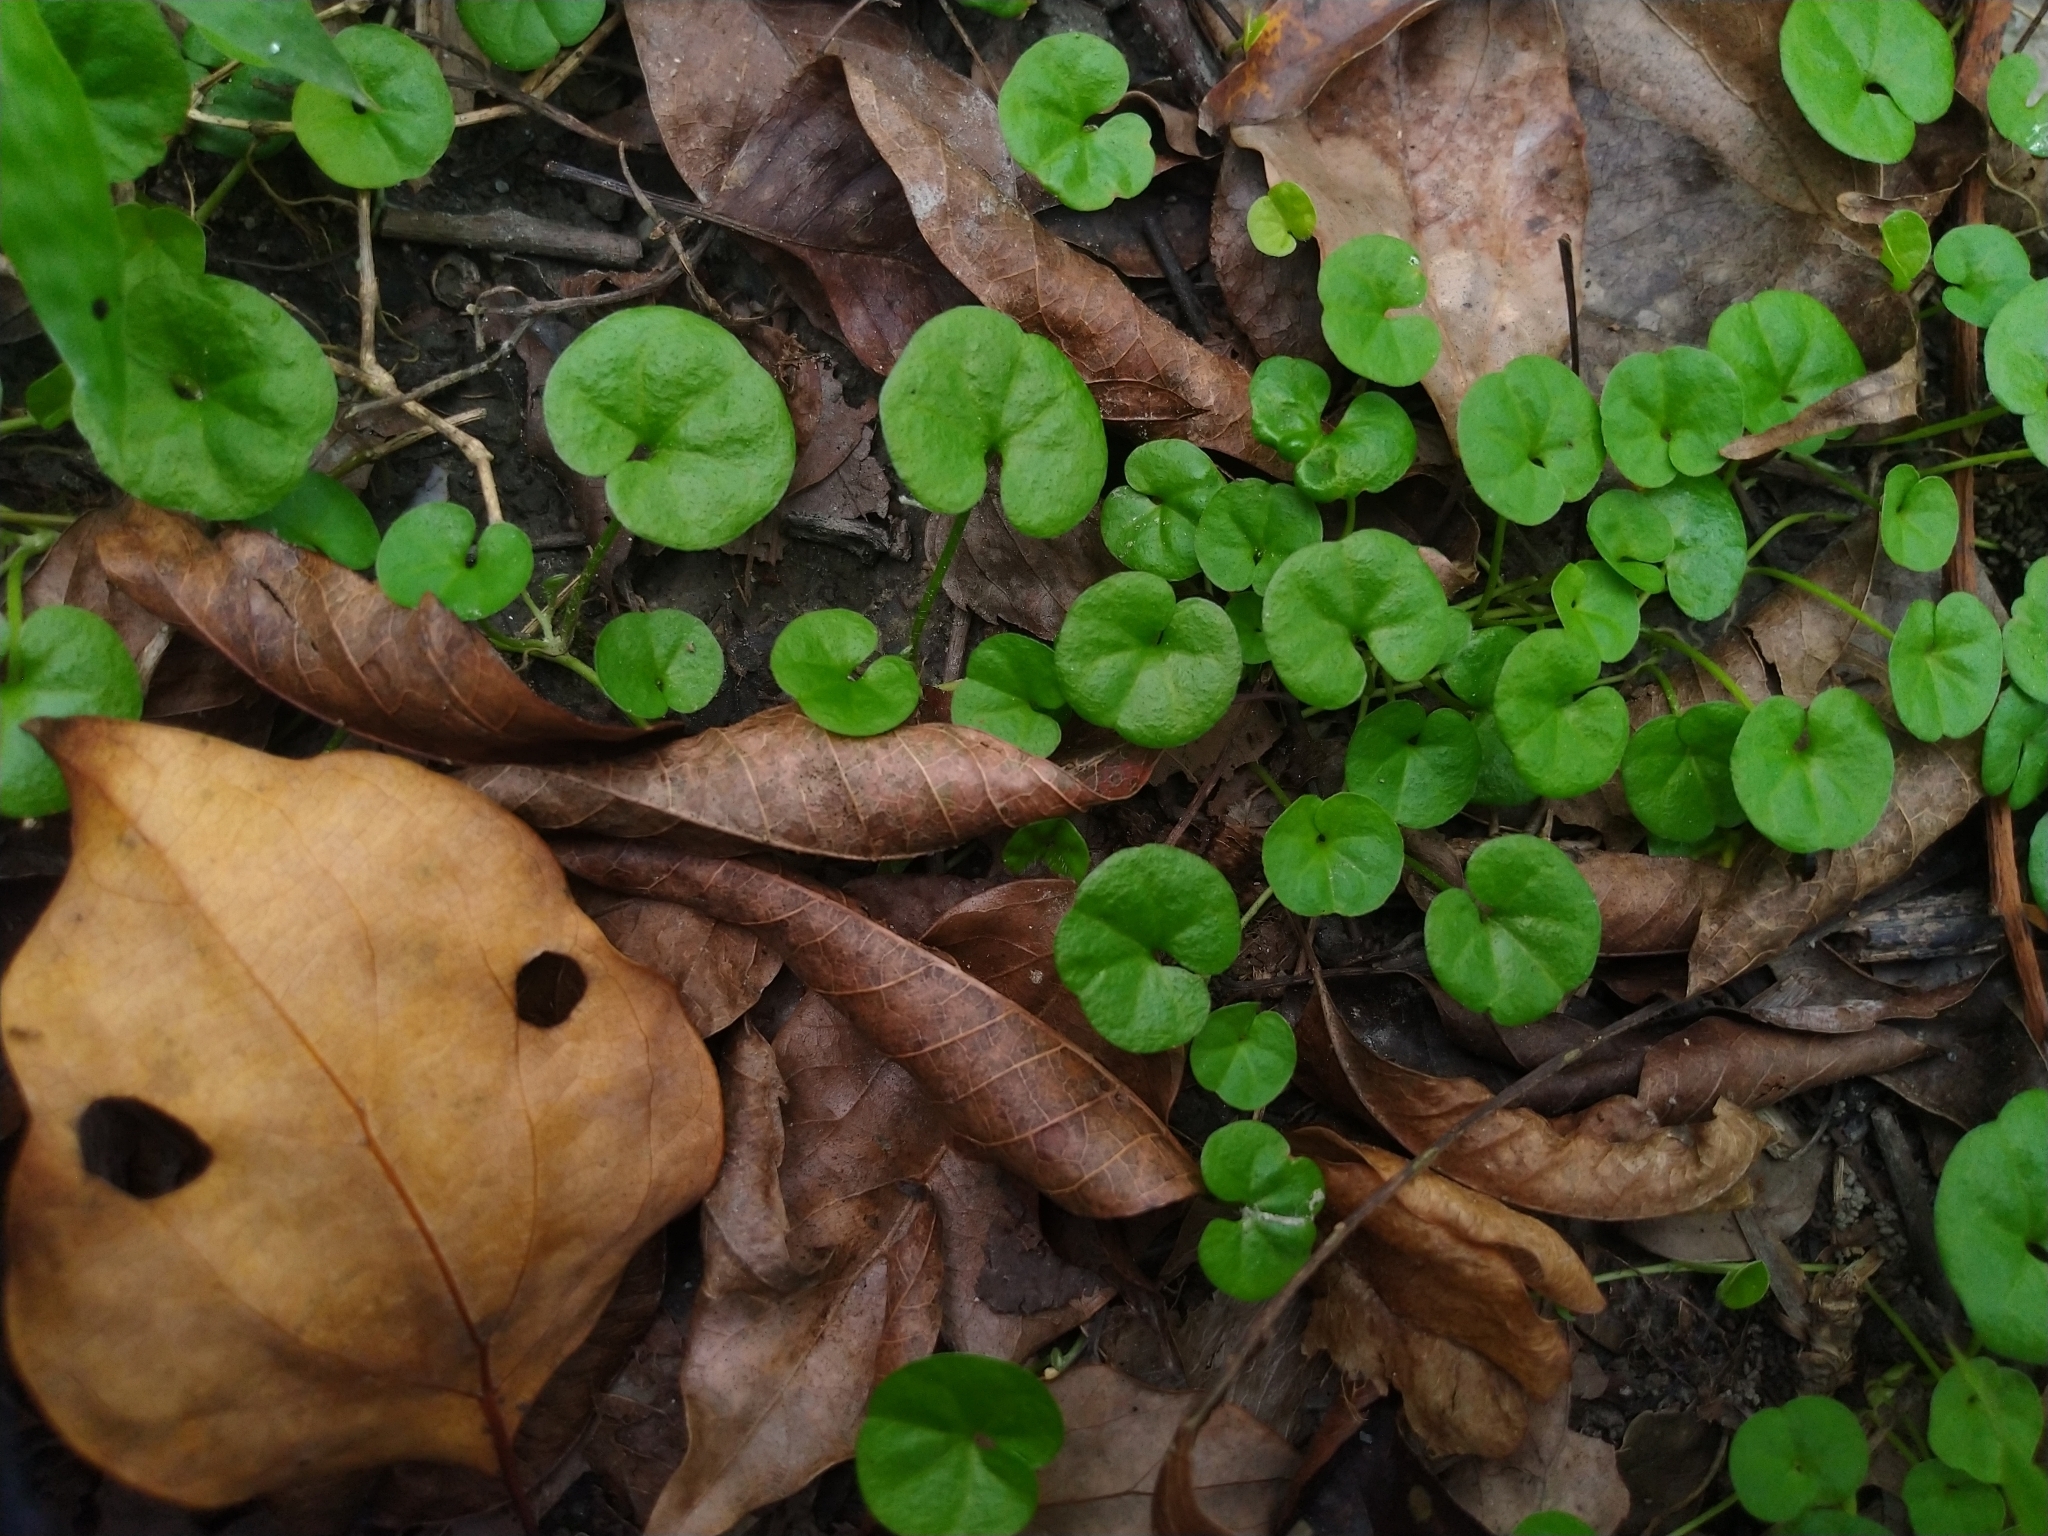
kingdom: Plantae
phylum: Tracheophyta
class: Magnoliopsida
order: Solanales
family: Convolvulaceae
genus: Dichondra
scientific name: Dichondra micrantha
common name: Kidneyweed
